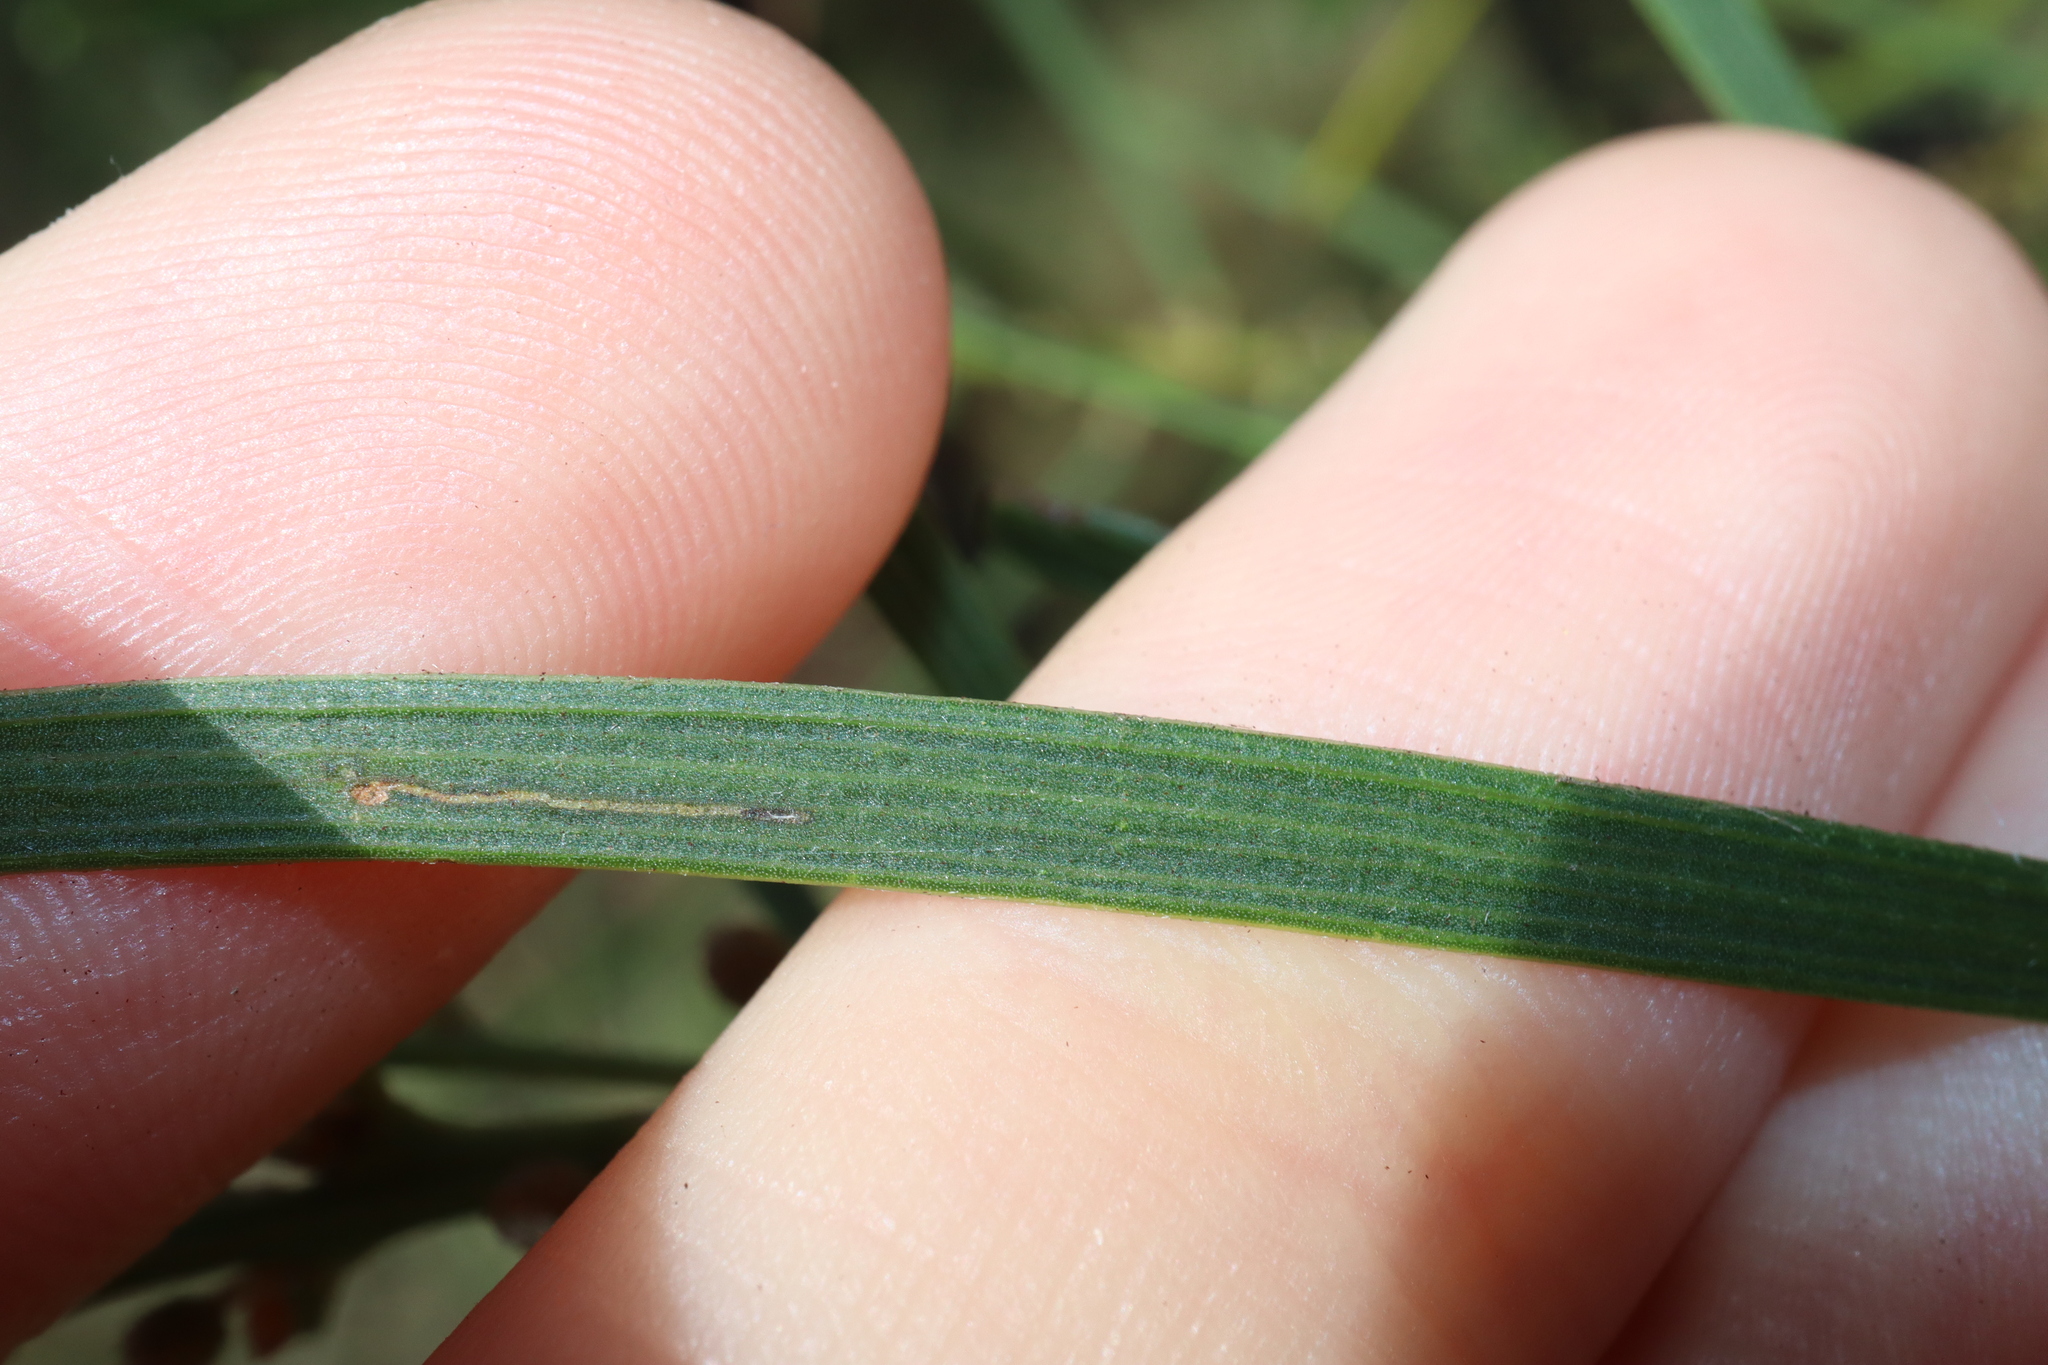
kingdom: Plantae
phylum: Tracheophyta
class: Magnoliopsida
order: Fabales
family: Fabaceae
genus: Acacia
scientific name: Acacia elongata
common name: Swamp wattle
